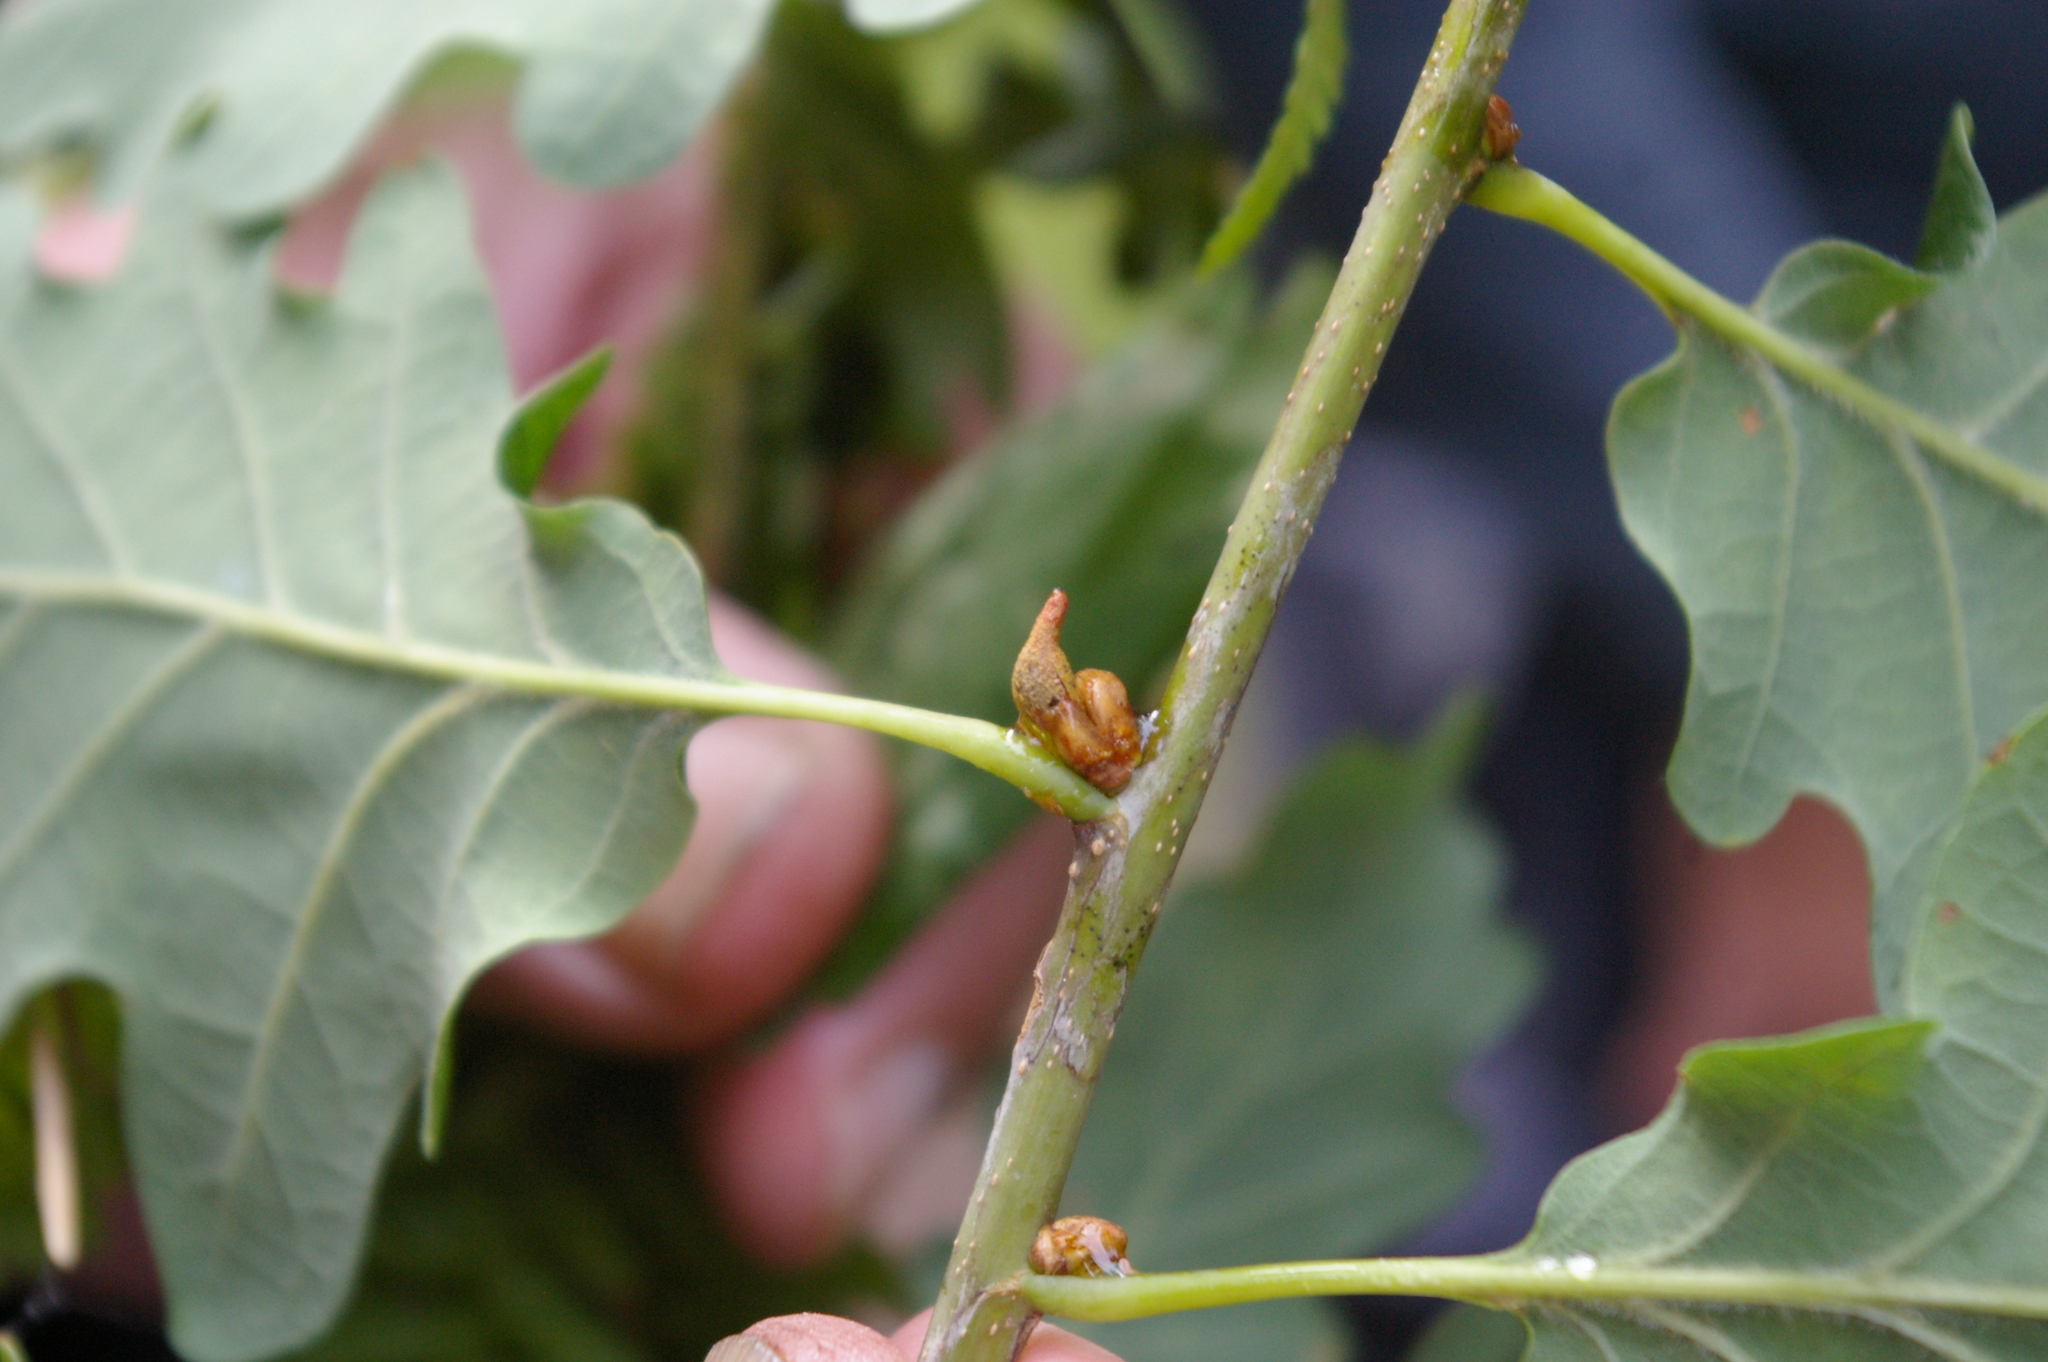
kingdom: Animalia
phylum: Arthropoda
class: Insecta
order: Hymenoptera
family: Cynipidae
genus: Andricus
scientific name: Andricus solitarius
